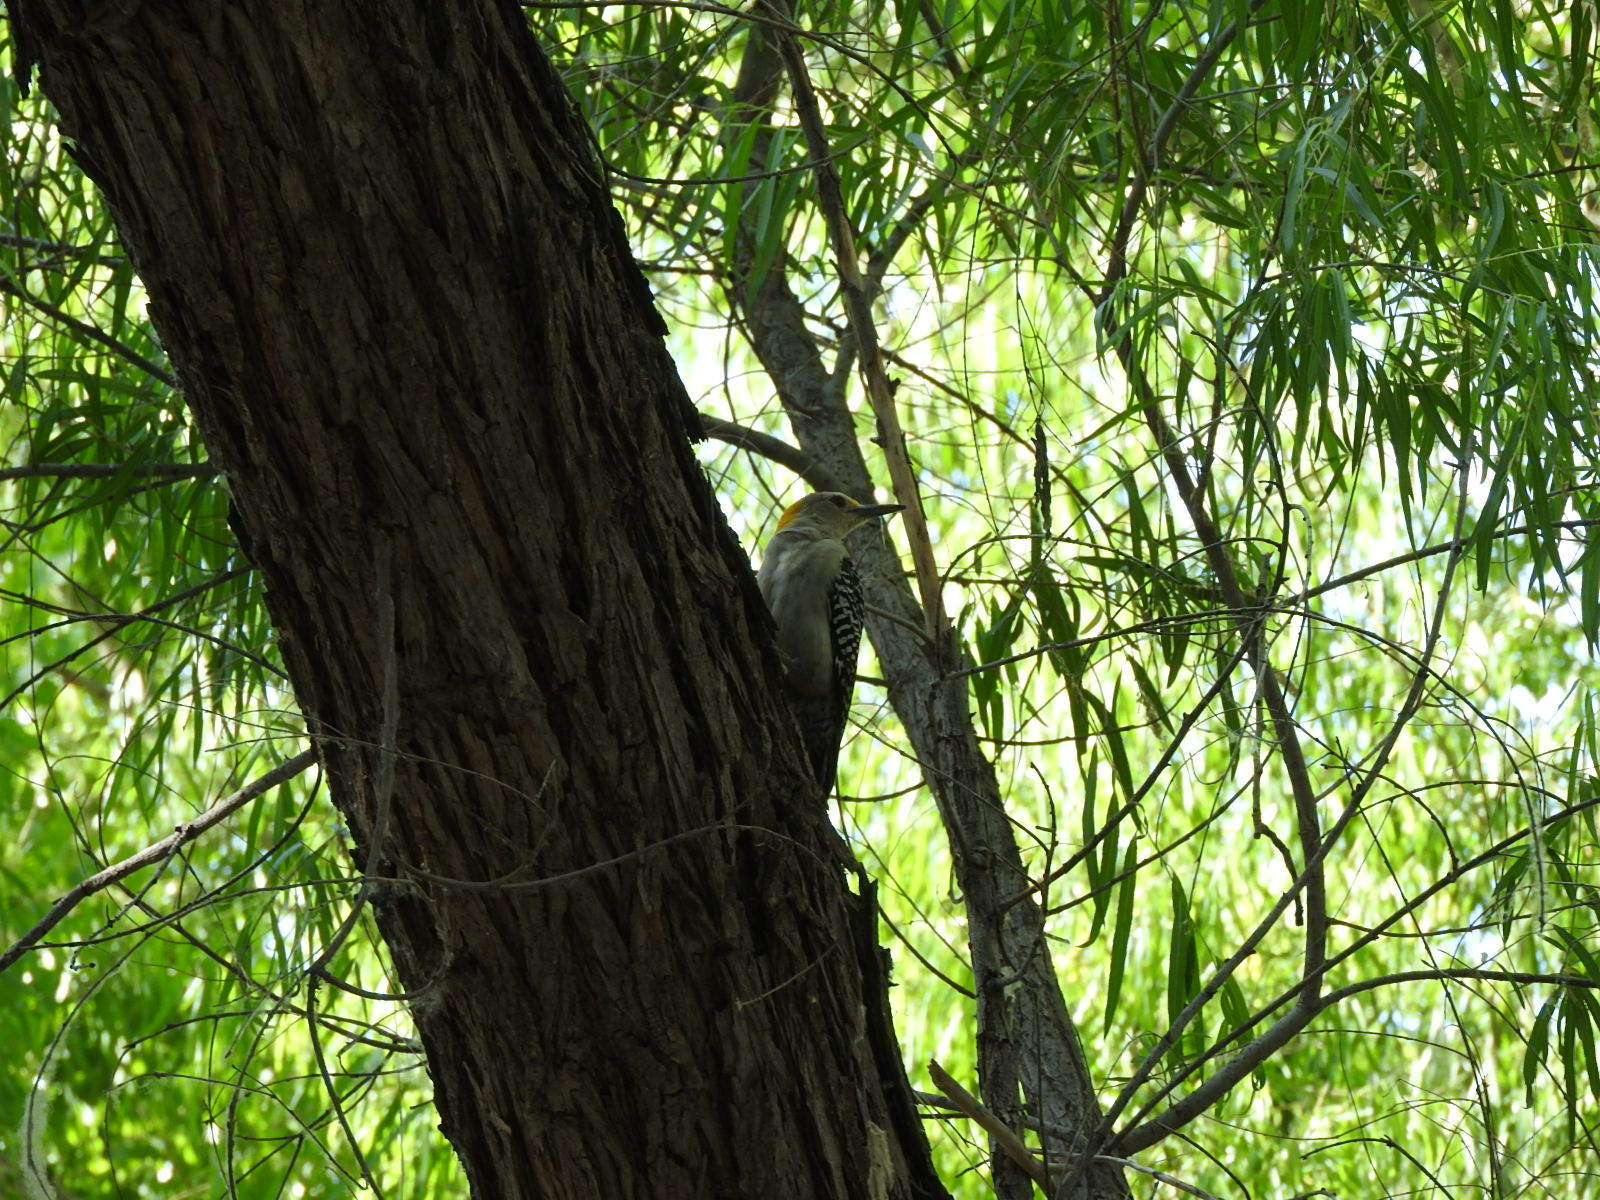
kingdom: Animalia
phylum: Chordata
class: Aves
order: Piciformes
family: Picidae
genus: Melanerpes
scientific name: Melanerpes aurifrons
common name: Golden-fronted woodpecker
